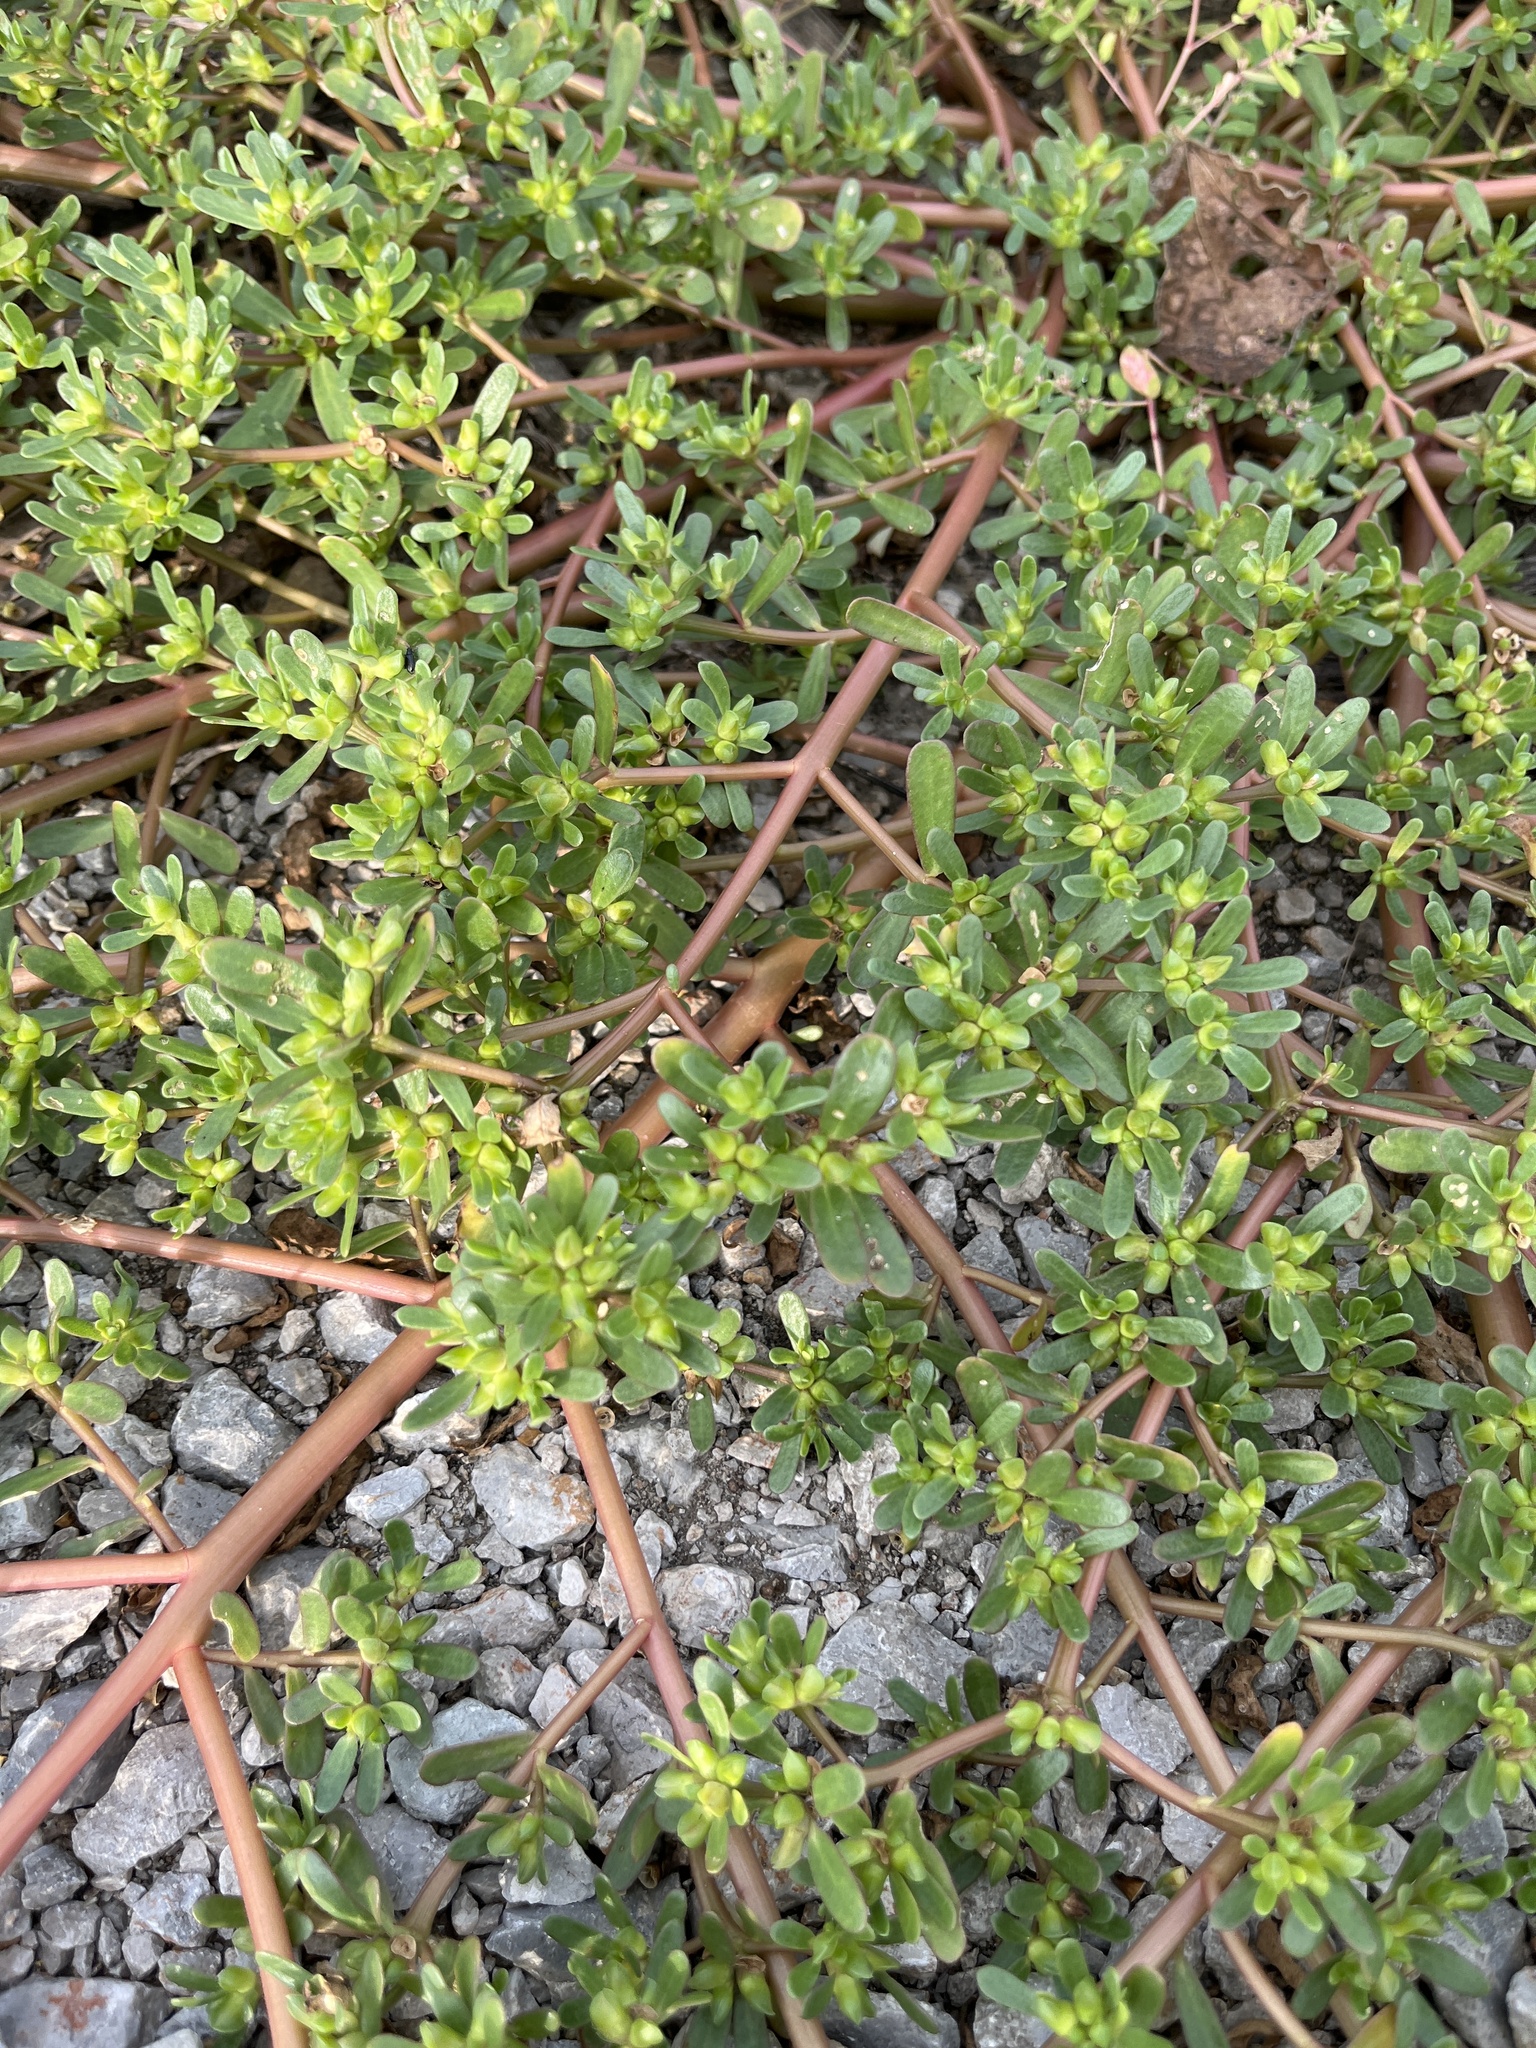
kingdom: Plantae
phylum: Tracheophyta
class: Magnoliopsida
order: Caryophyllales
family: Portulacaceae
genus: Portulaca
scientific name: Portulaca oleracea
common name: Common purslane
